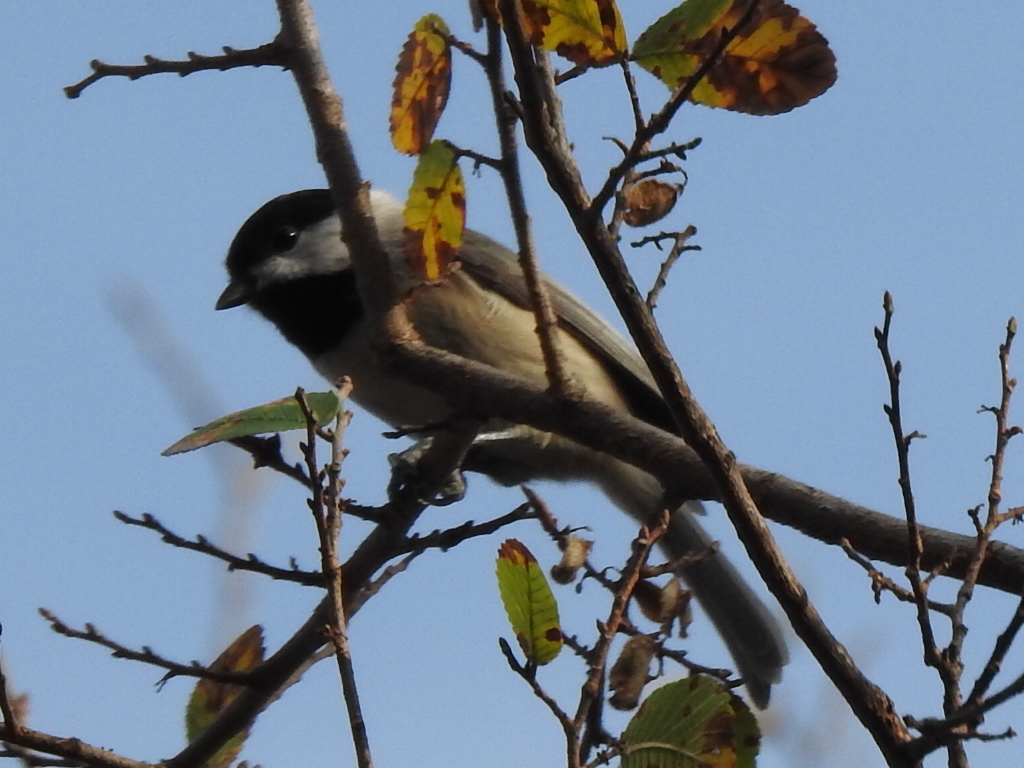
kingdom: Animalia
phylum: Chordata
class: Aves
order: Passeriformes
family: Paridae
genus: Poecile
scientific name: Poecile carolinensis
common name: Carolina chickadee
